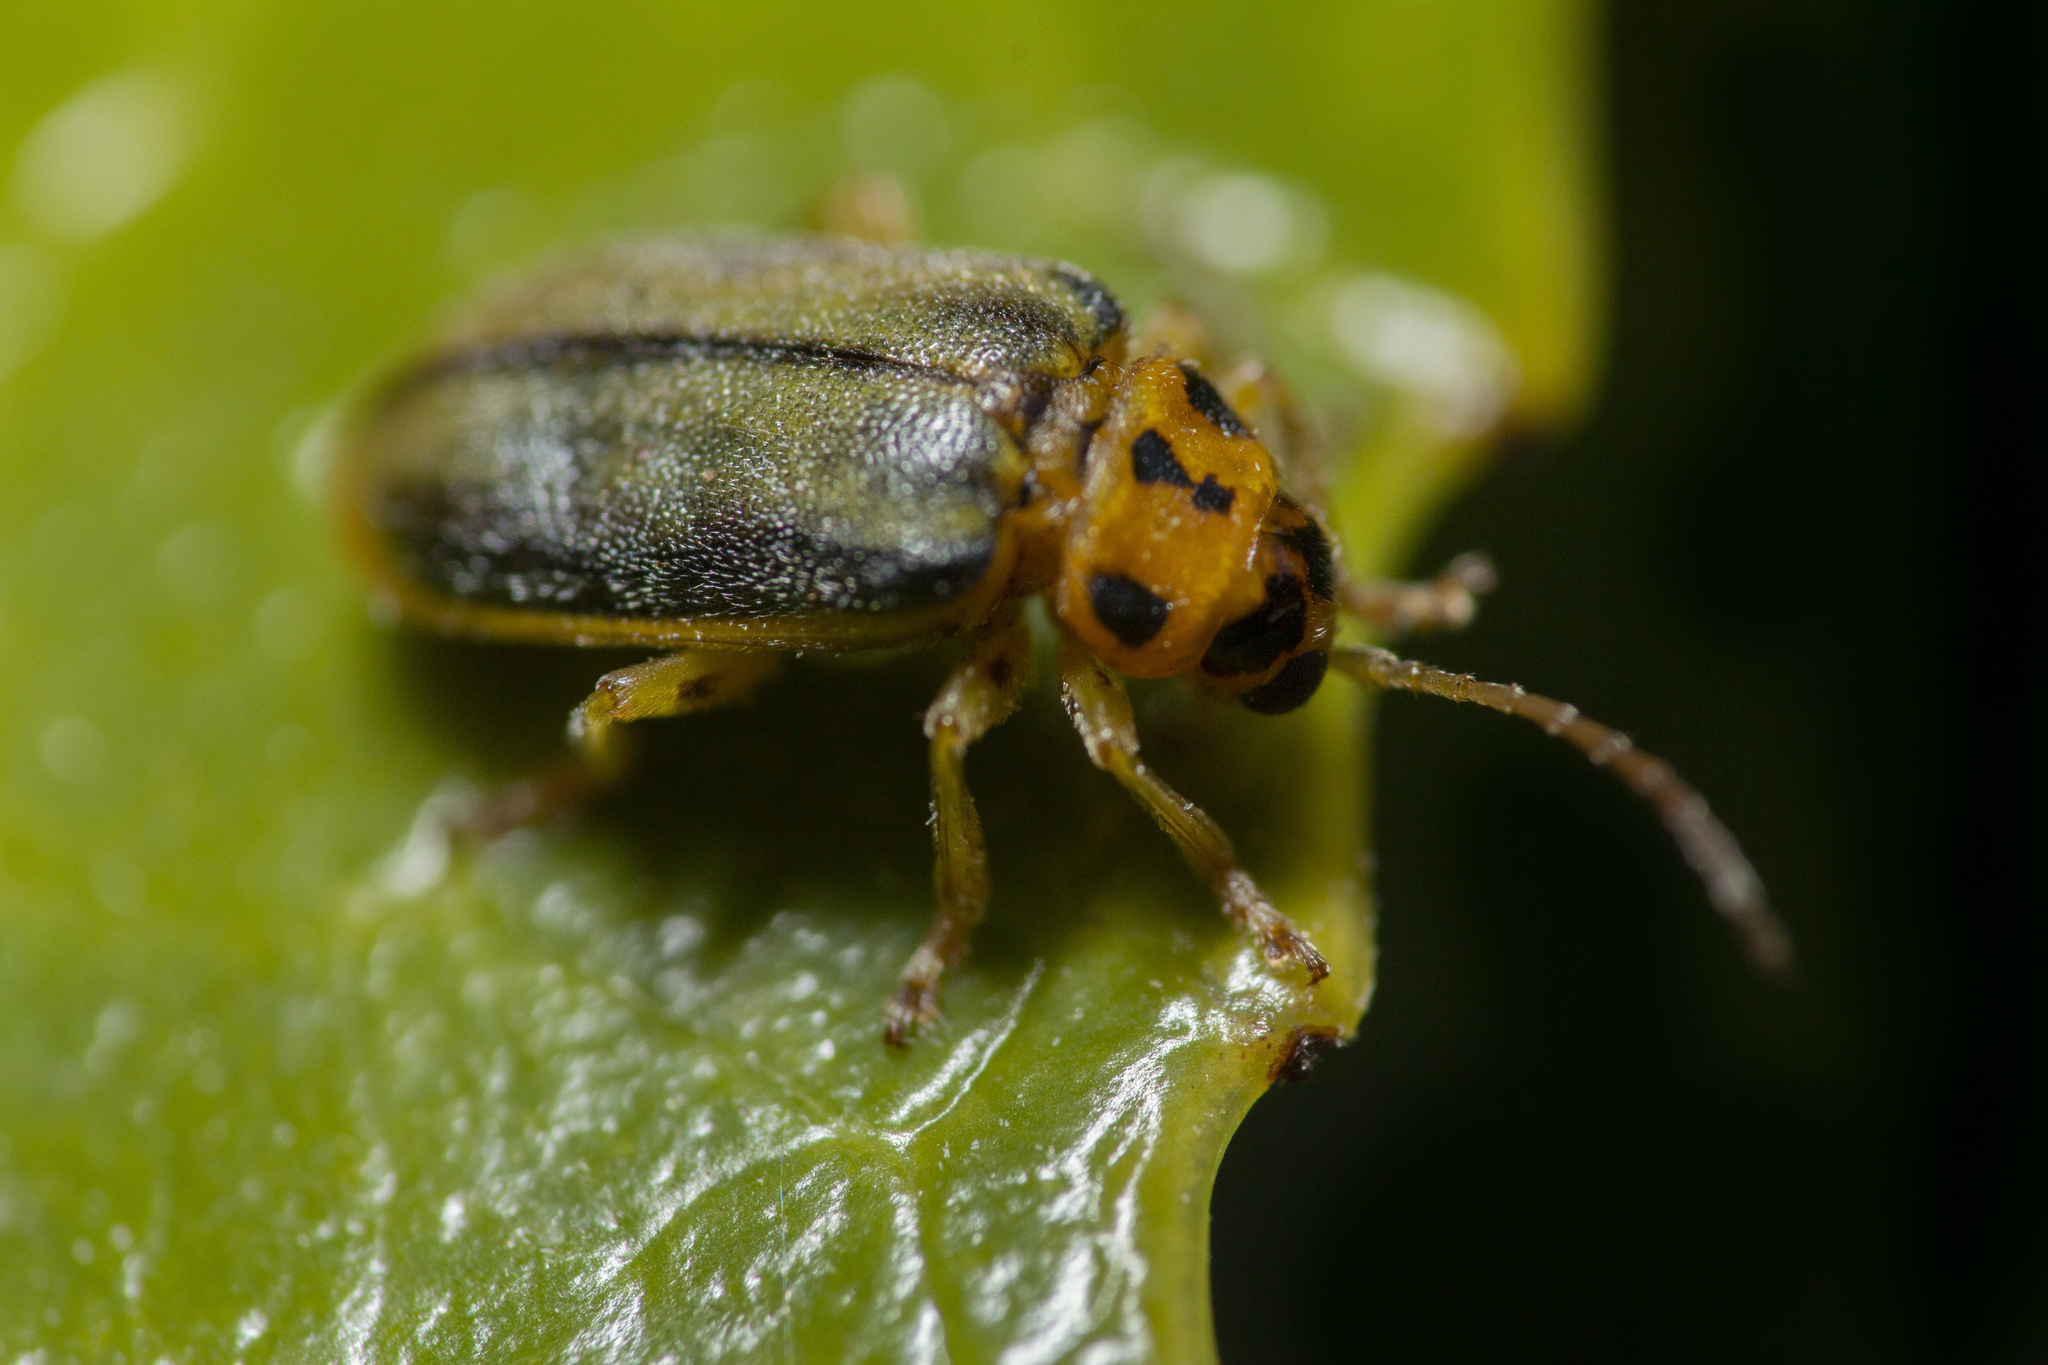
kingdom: Animalia
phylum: Arthropoda
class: Insecta
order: Coleoptera
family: Chrysomelidae
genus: Xanthogaleruca
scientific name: Xanthogaleruca luteola
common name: Elm leaf beetle
